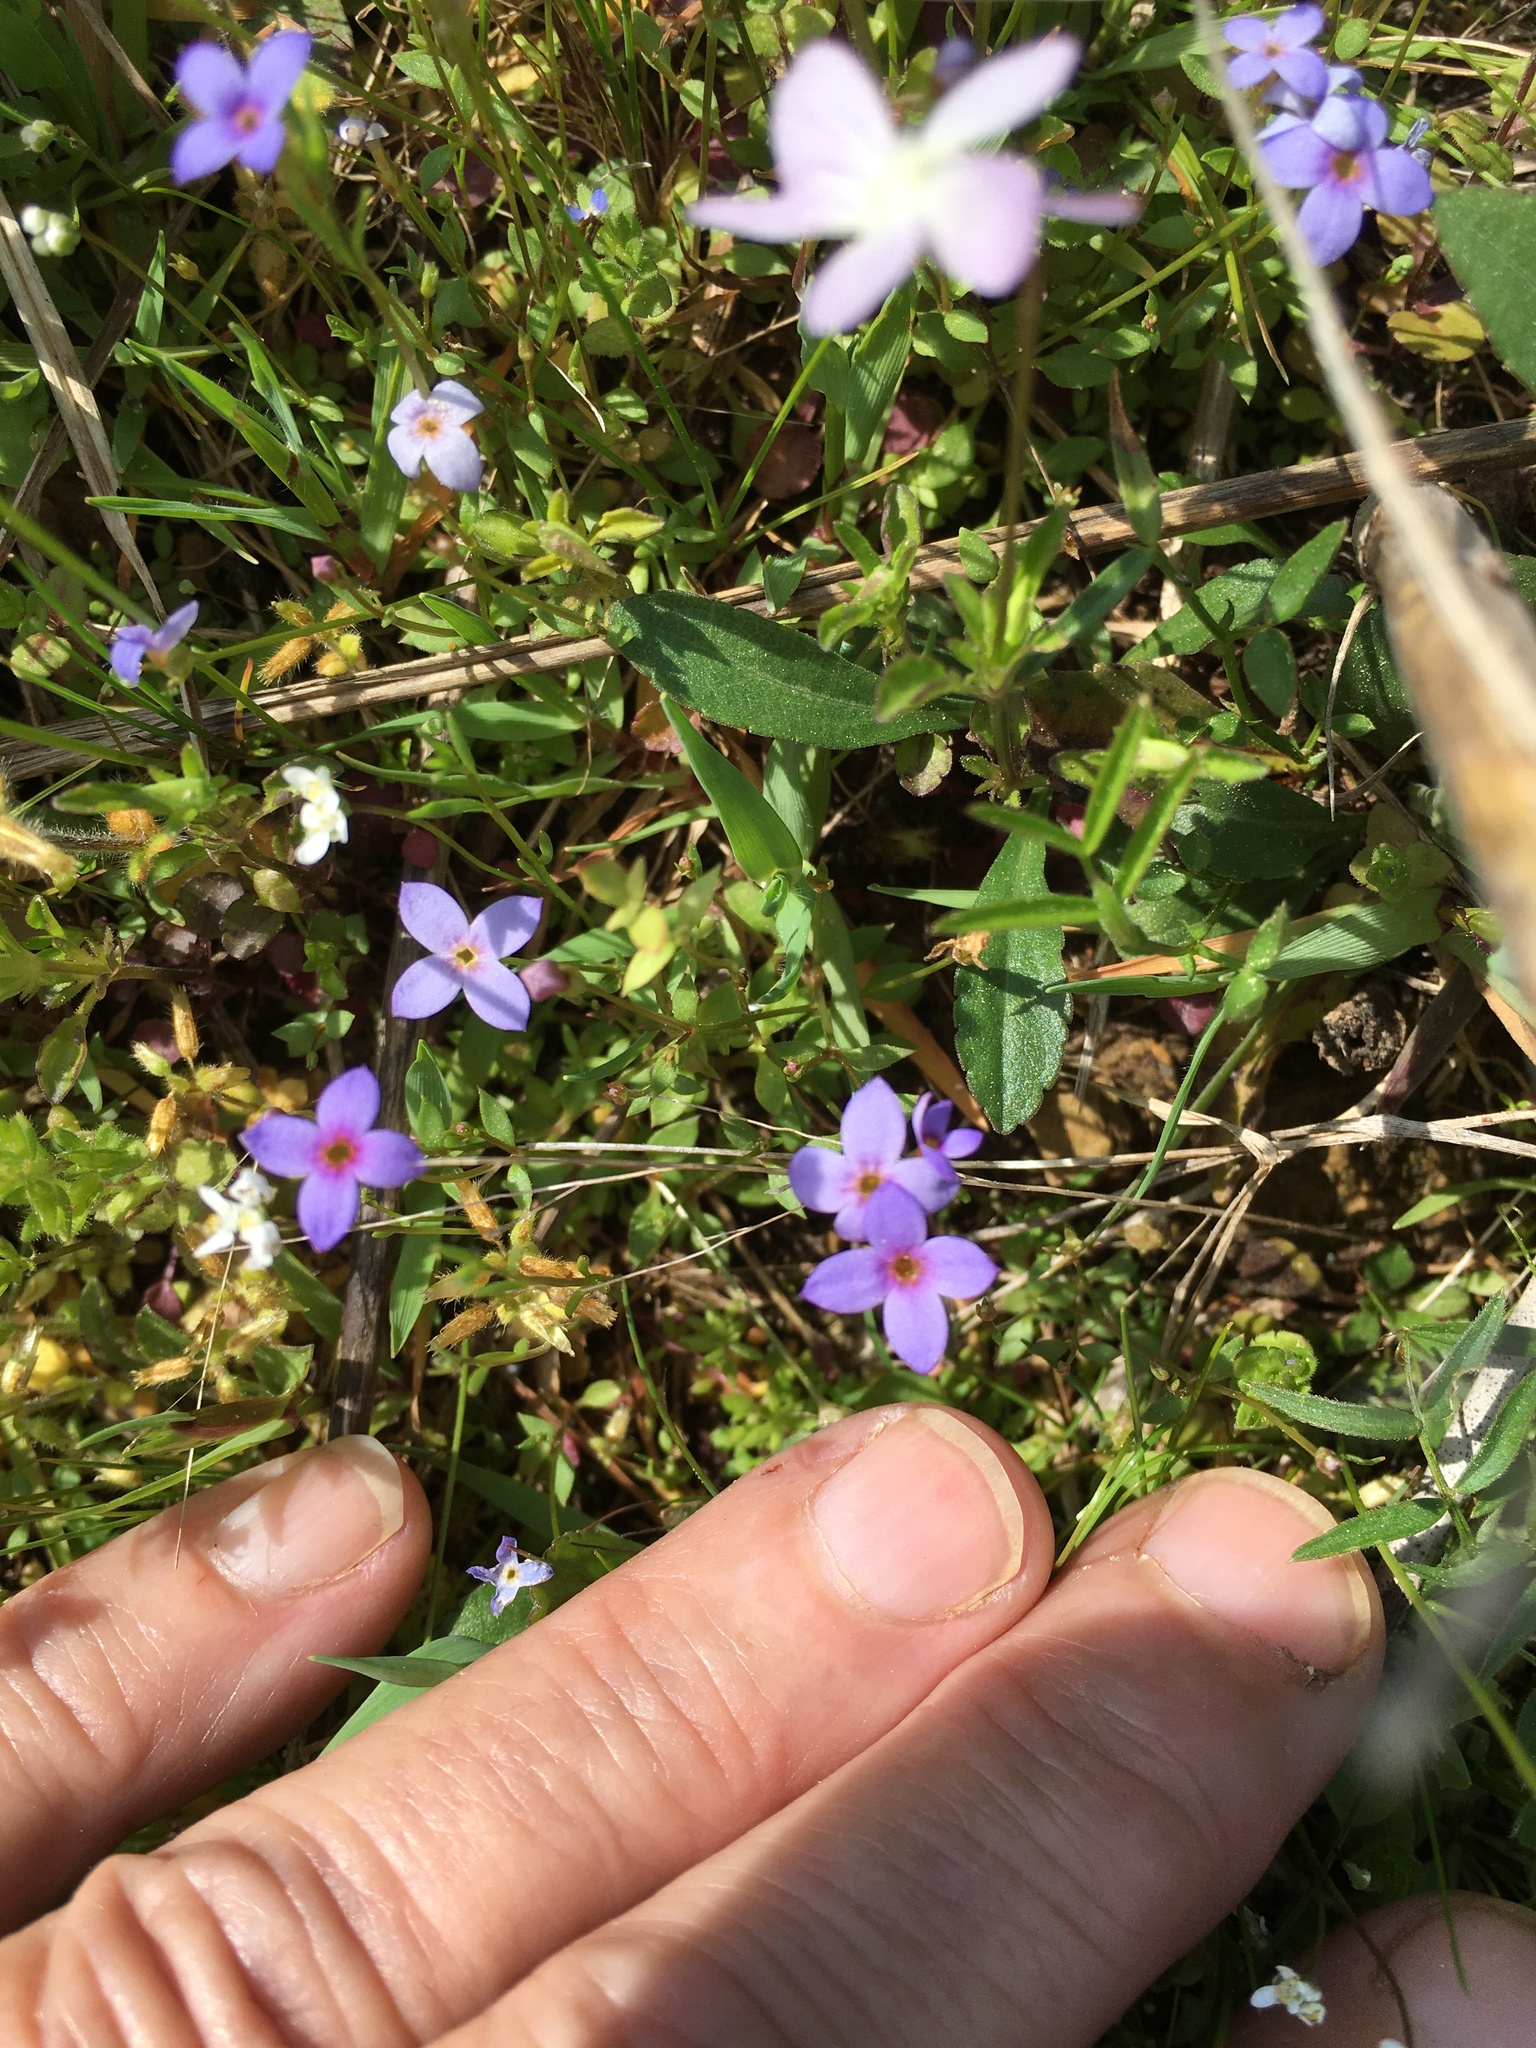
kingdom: Plantae
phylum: Tracheophyta
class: Magnoliopsida
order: Gentianales
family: Rubiaceae
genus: Houstonia
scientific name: Houstonia pusilla
